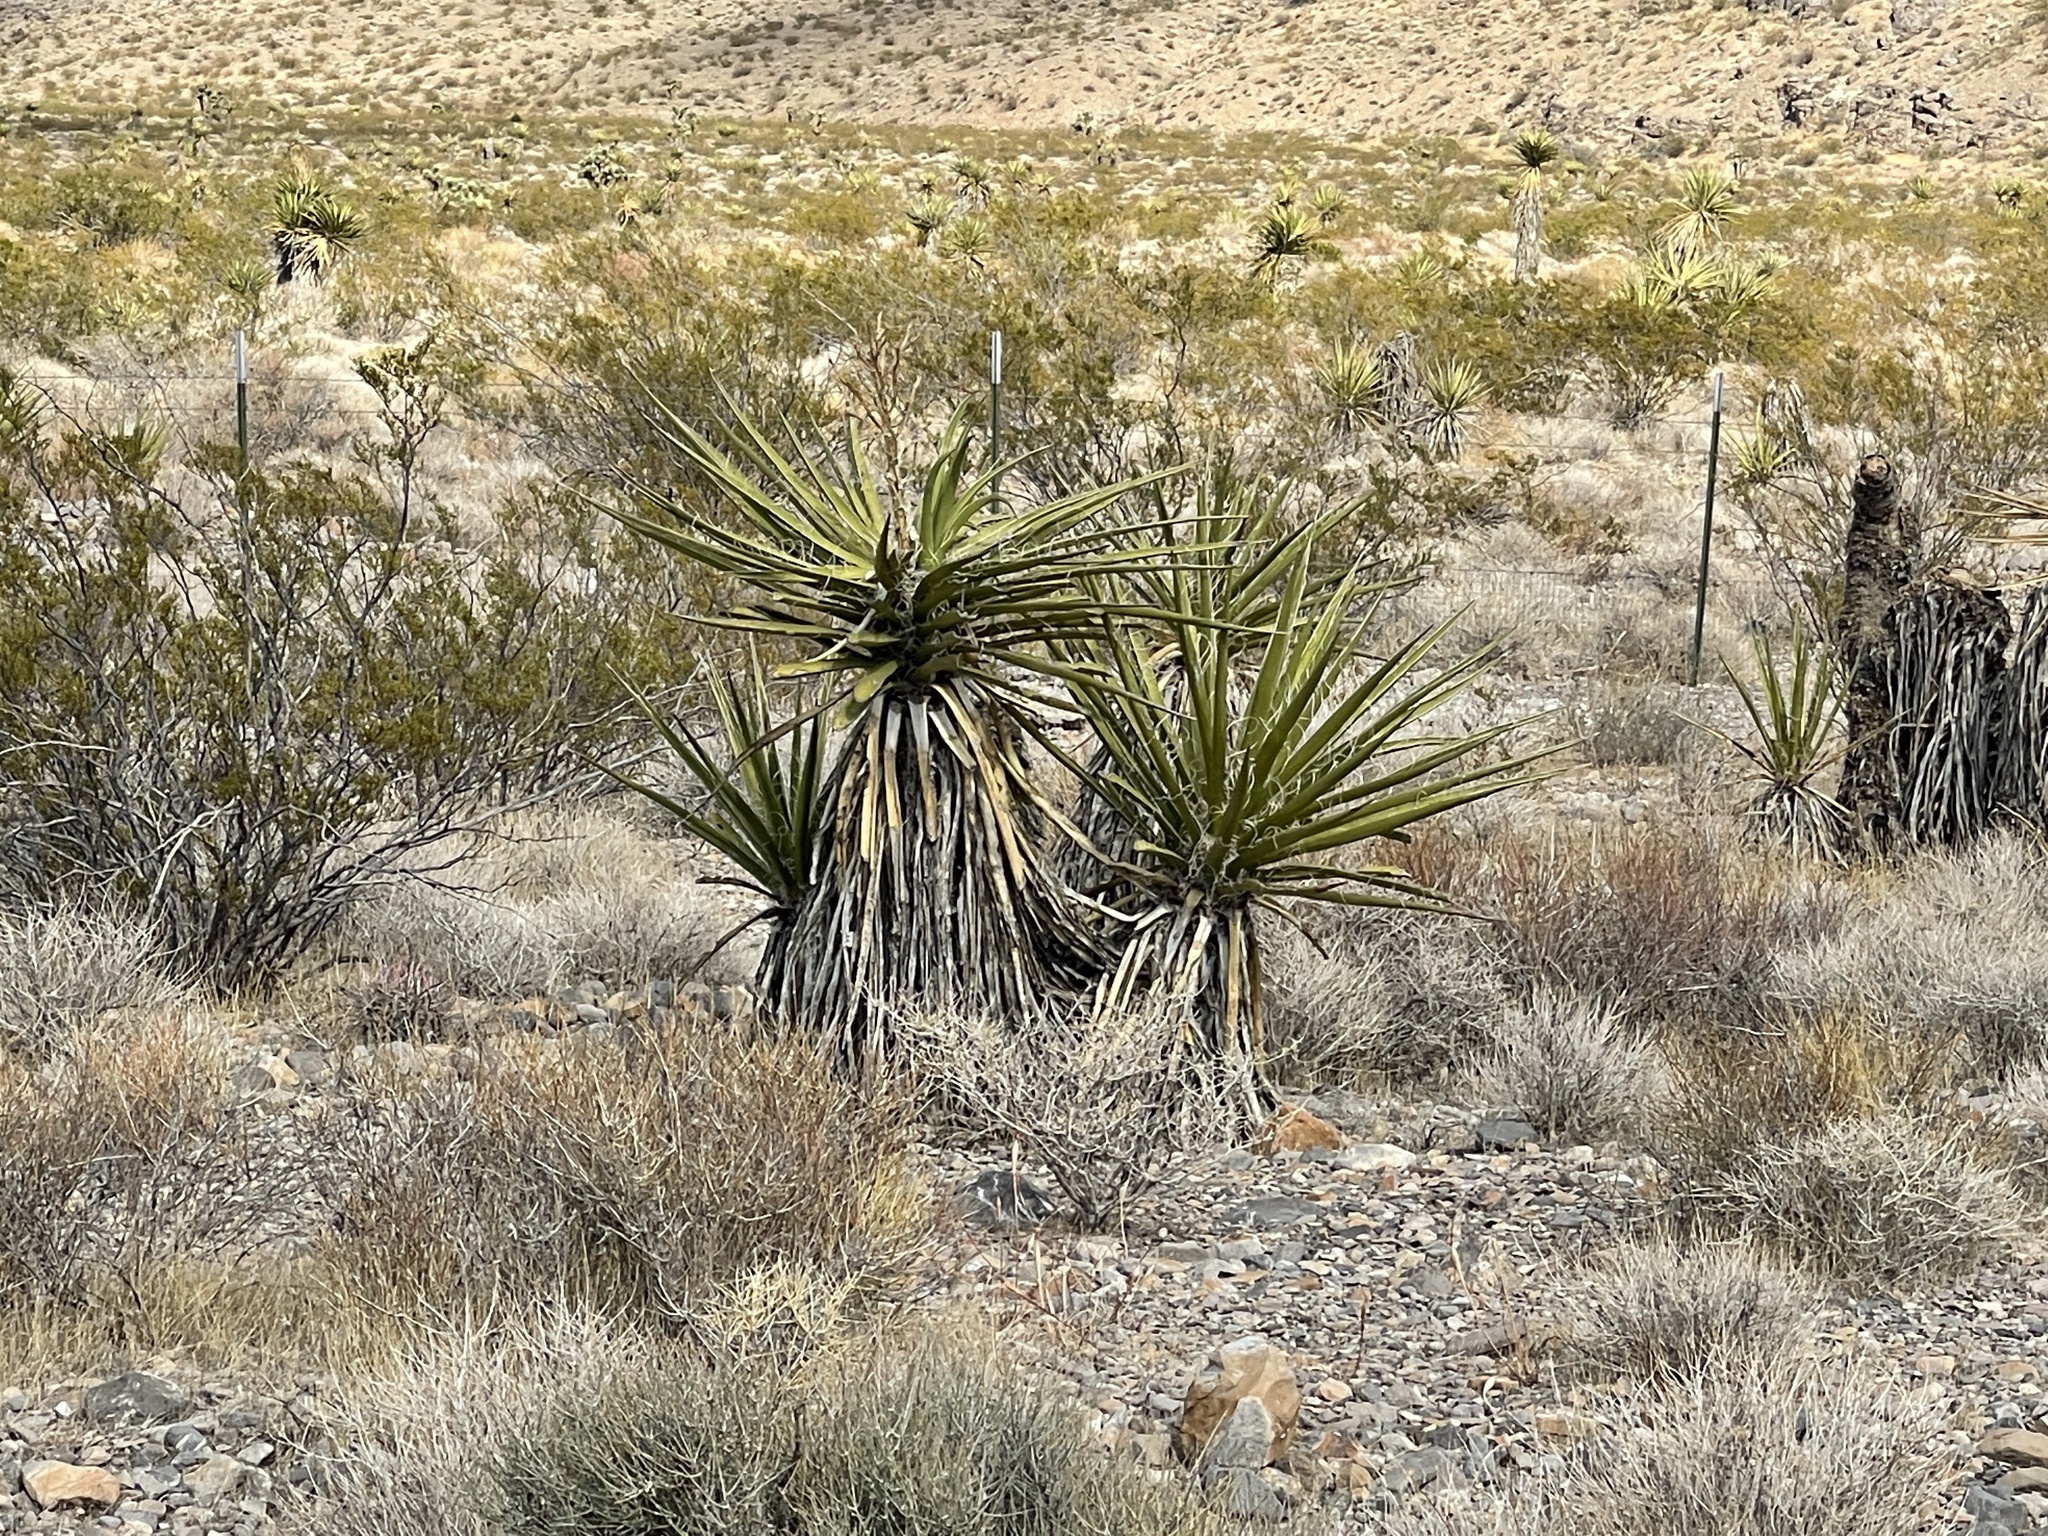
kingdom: Plantae
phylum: Tracheophyta
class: Liliopsida
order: Asparagales
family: Asparagaceae
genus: Yucca
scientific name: Yucca schidigera
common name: Mojave yucca
